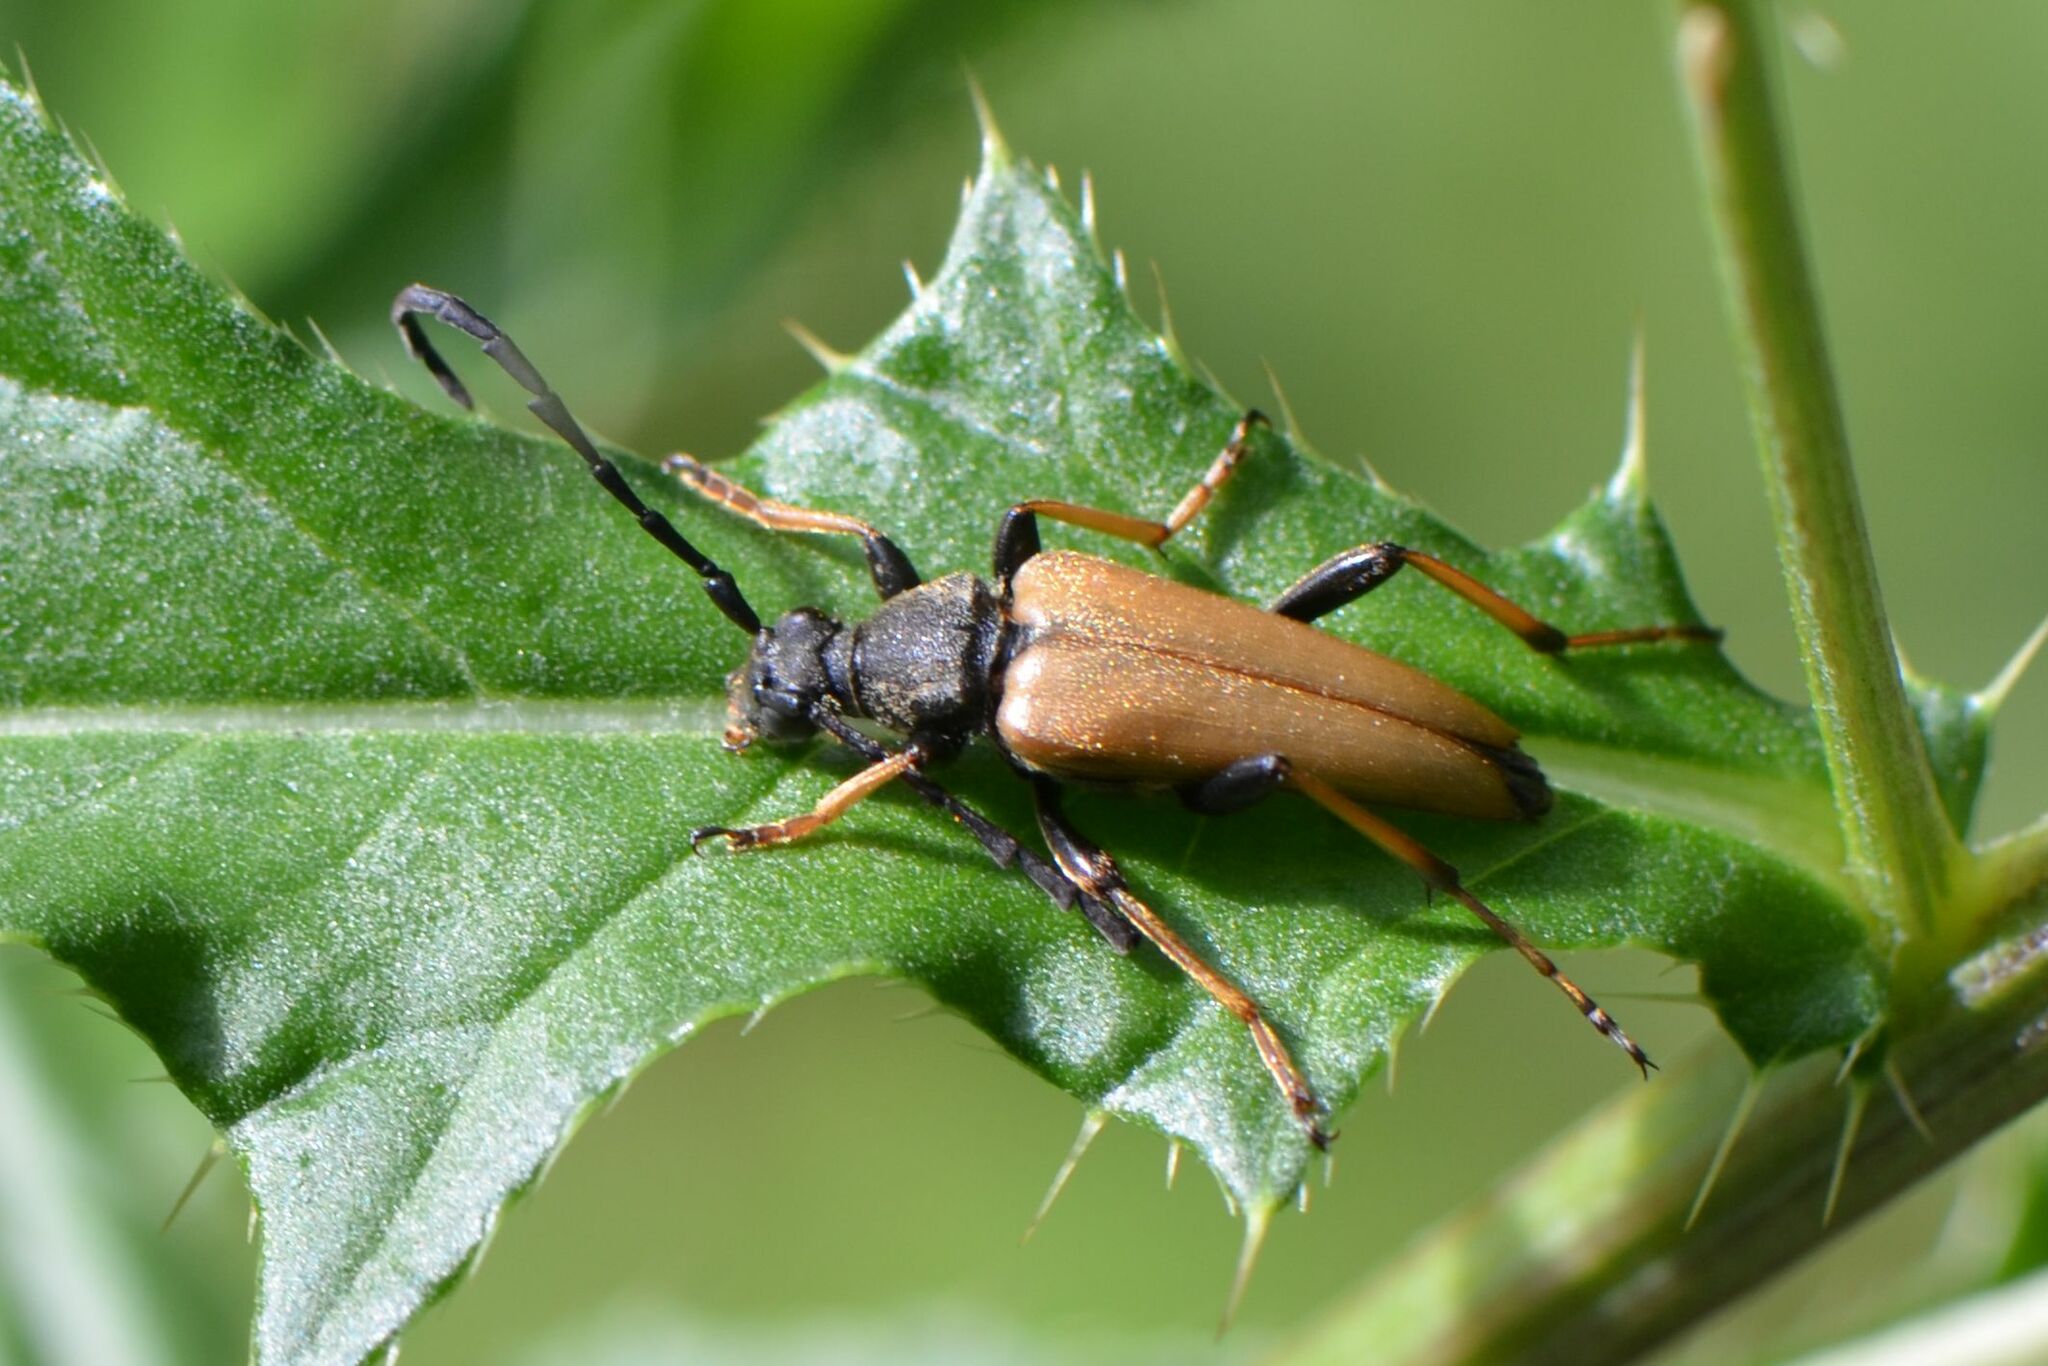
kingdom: Animalia
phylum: Arthropoda
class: Insecta
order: Coleoptera
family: Cerambycidae
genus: Stictoleptura
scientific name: Stictoleptura rubra
